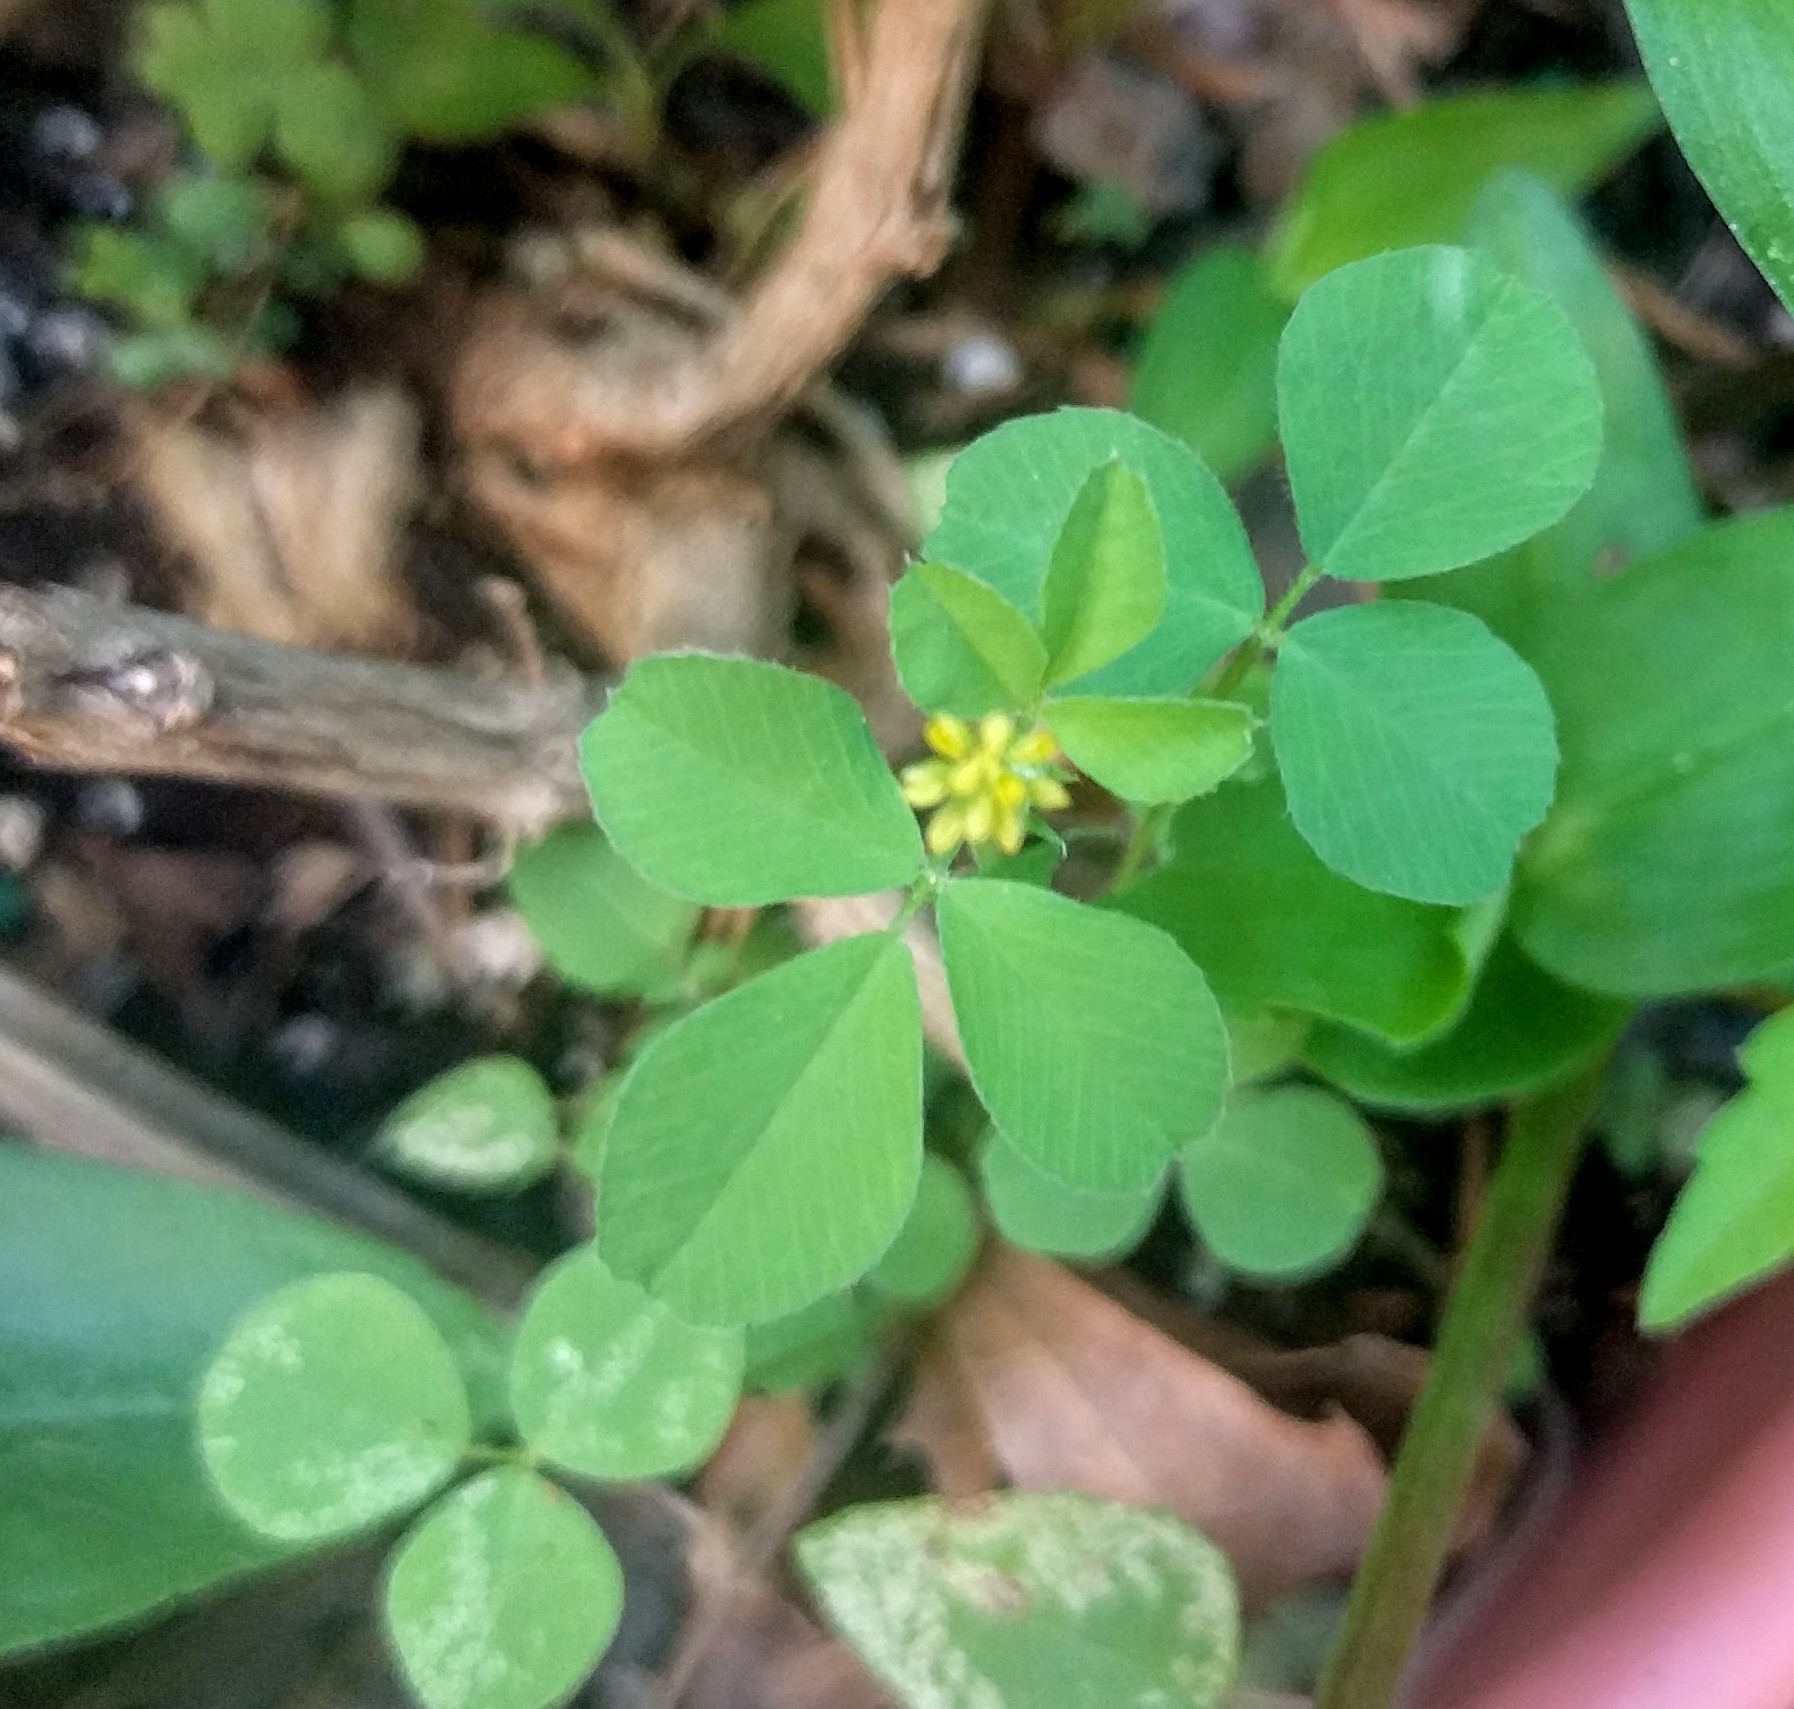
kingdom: Plantae
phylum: Tracheophyta
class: Magnoliopsida
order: Fabales
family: Fabaceae
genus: Medicago
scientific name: Medicago lupulina
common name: Black medick
